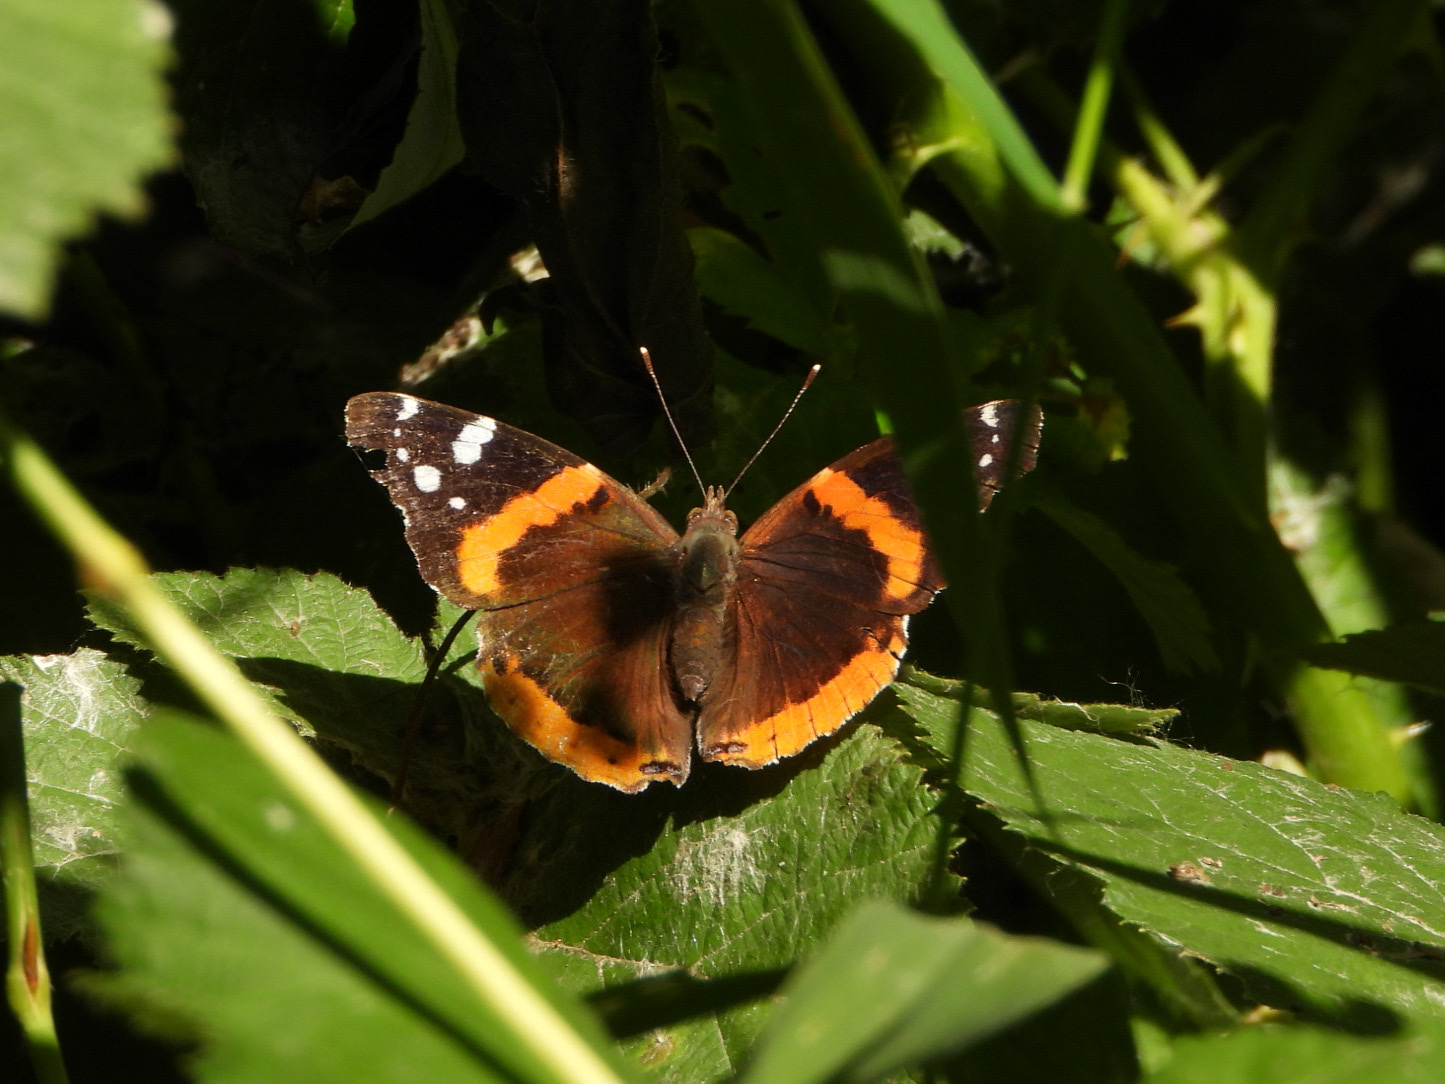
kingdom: Animalia
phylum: Arthropoda
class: Insecta
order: Lepidoptera
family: Nymphalidae
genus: Vanessa
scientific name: Vanessa atalanta
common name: Red admiral
